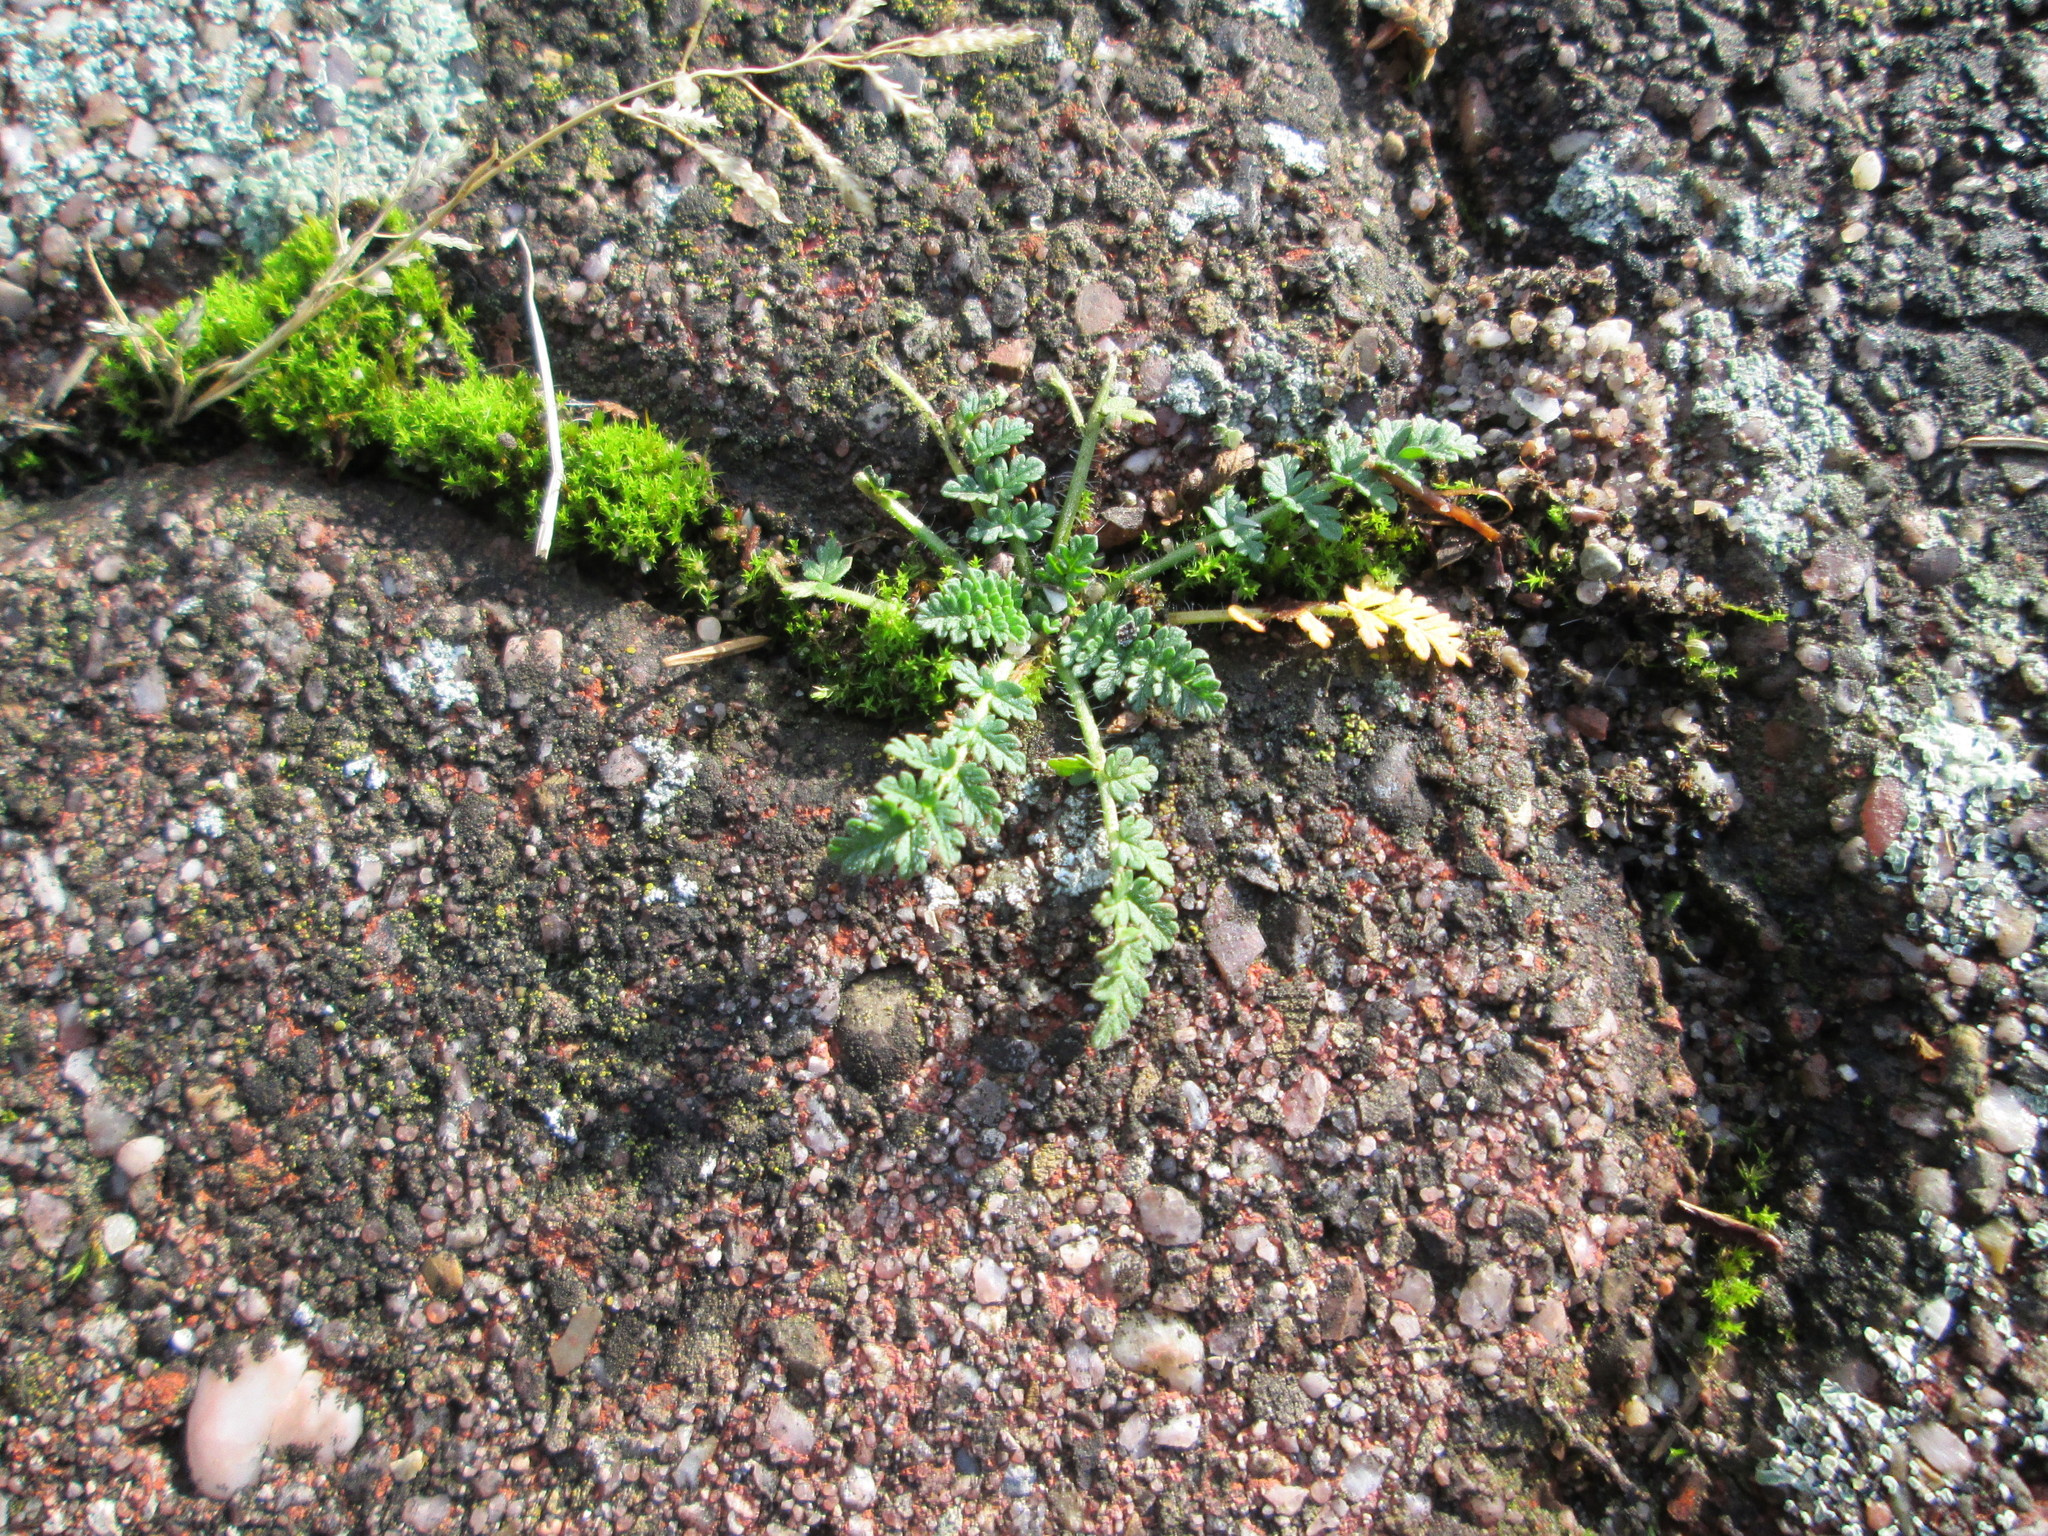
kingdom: Plantae
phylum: Tracheophyta
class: Magnoliopsida
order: Geraniales
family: Geraniaceae
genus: Erodium
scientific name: Erodium cicutarium
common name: Common stork's-bill
